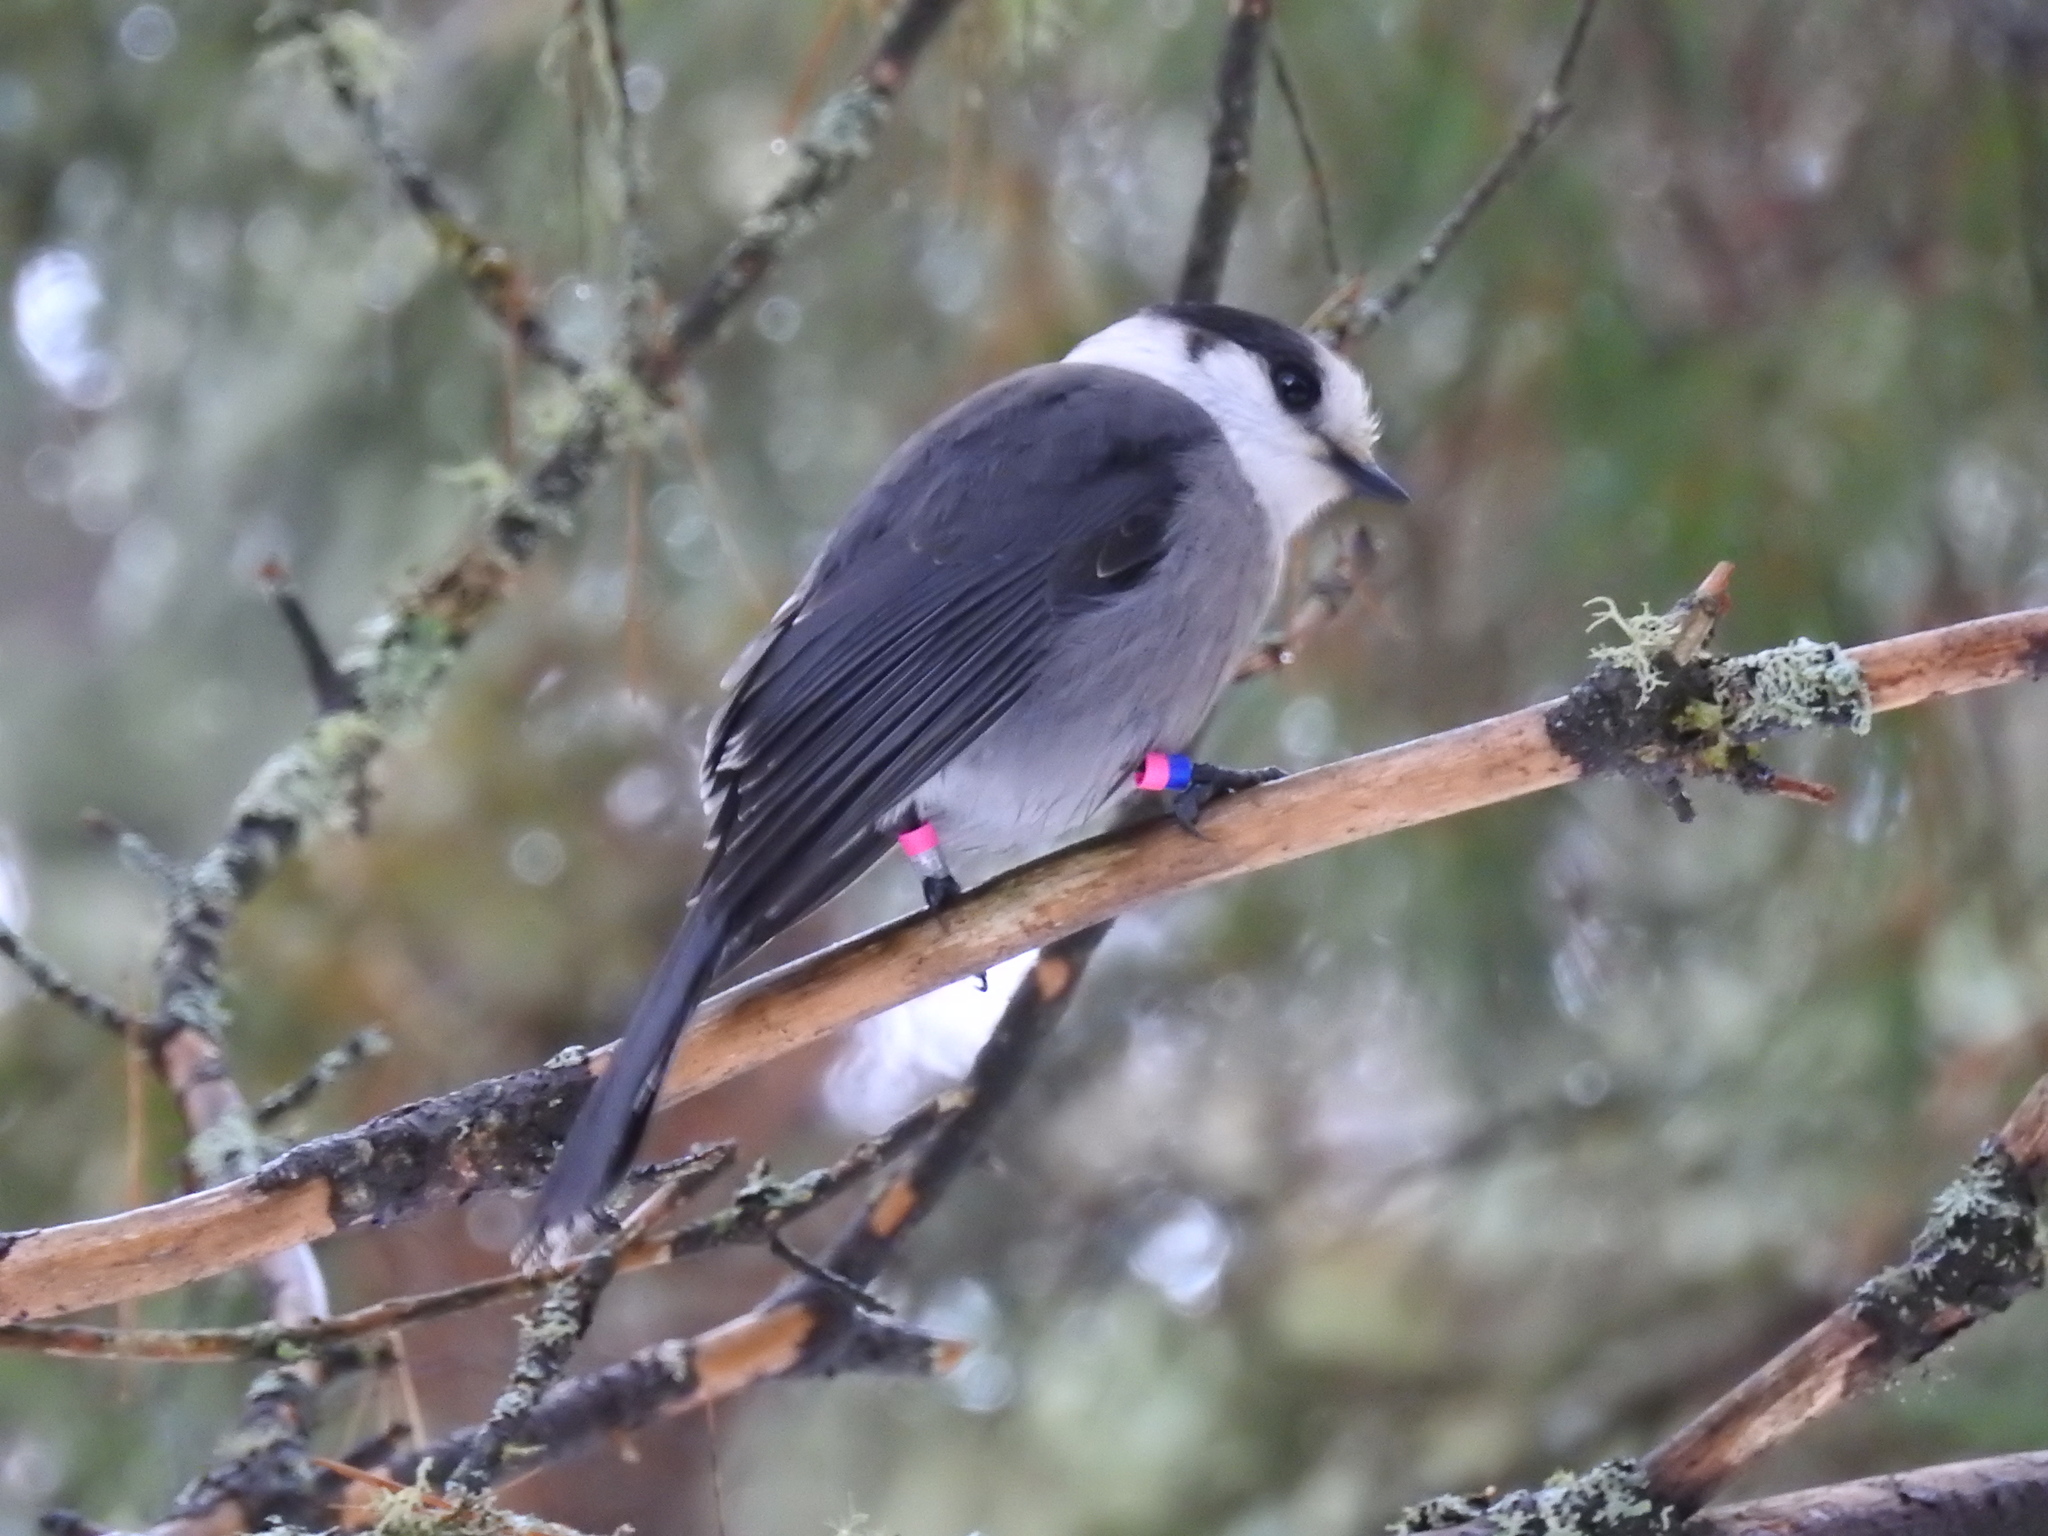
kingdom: Animalia
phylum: Chordata
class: Aves
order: Passeriformes
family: Corvidae
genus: Perisoreus
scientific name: Perisoreus canadensis
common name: Gray jay
